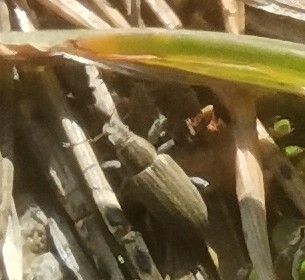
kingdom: Animalia
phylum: Arthropoda
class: Insecta
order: Coleoptera
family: Curculionidae
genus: Sitona
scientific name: Sitona obsoletus
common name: Weevil
